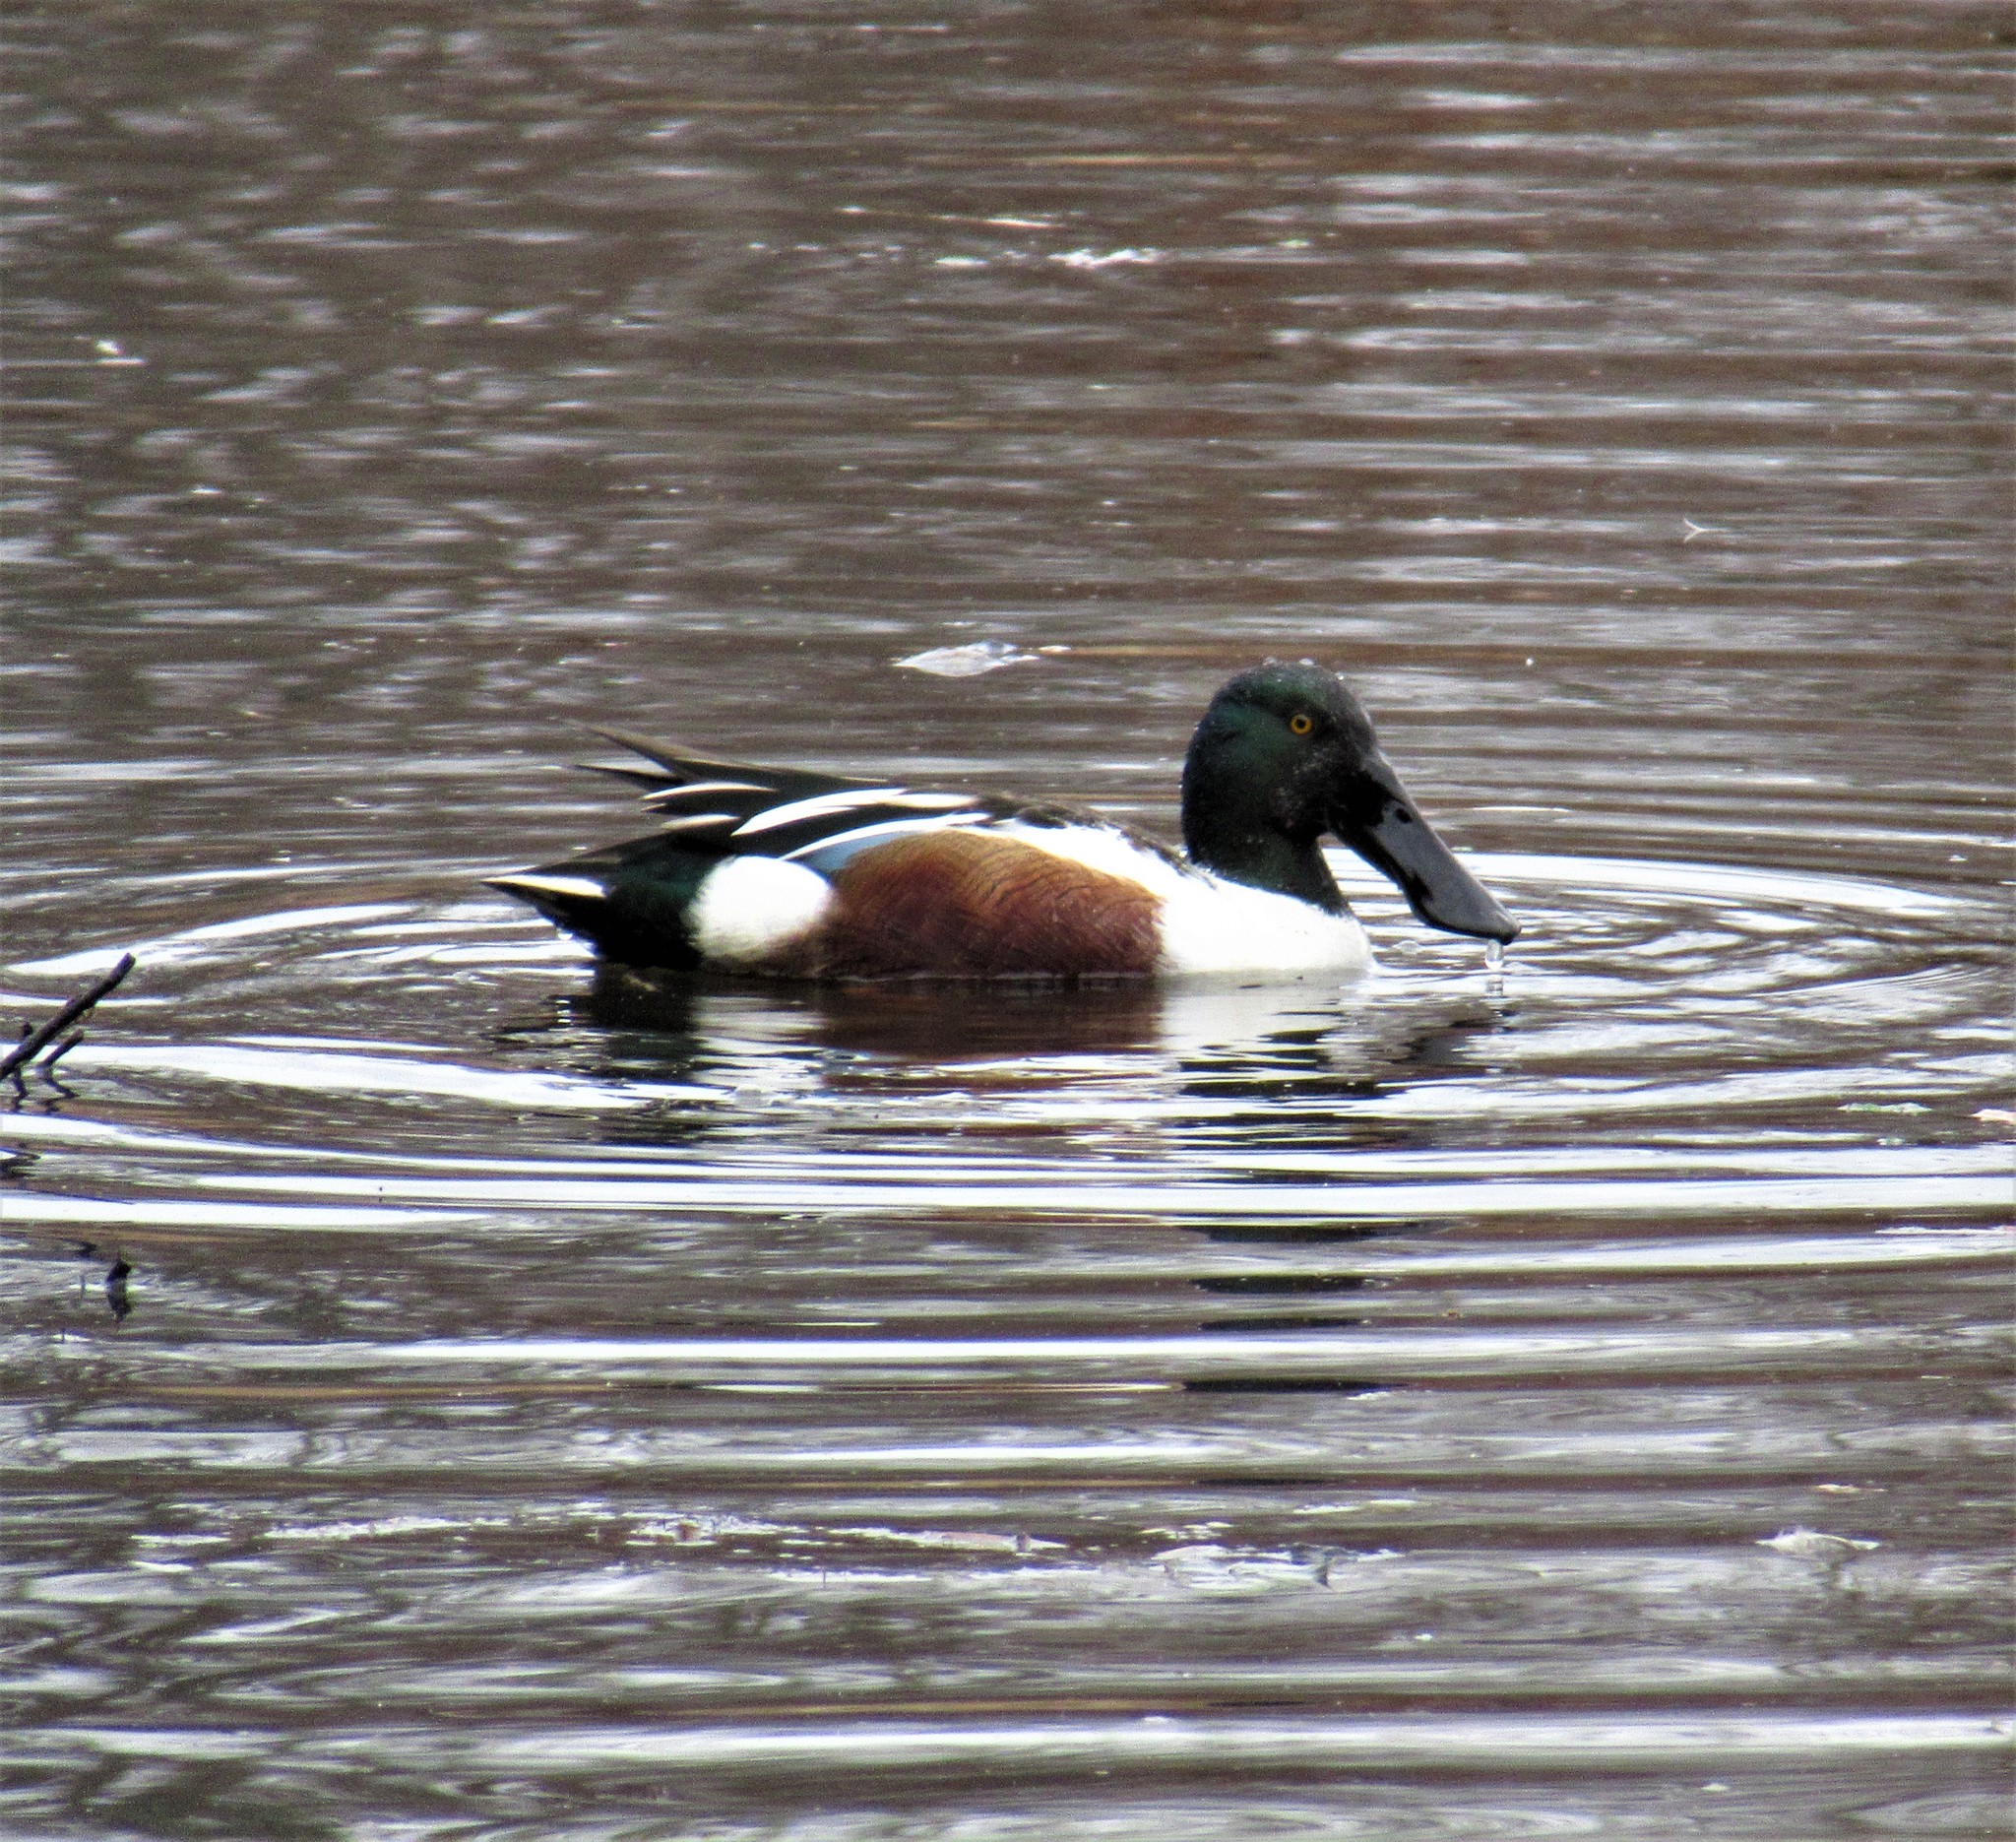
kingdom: Animalia
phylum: Chordata
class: Aves
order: Anseriformes
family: Anatidae
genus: Spatula
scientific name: Spatula clypeata
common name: Northern shoveler
